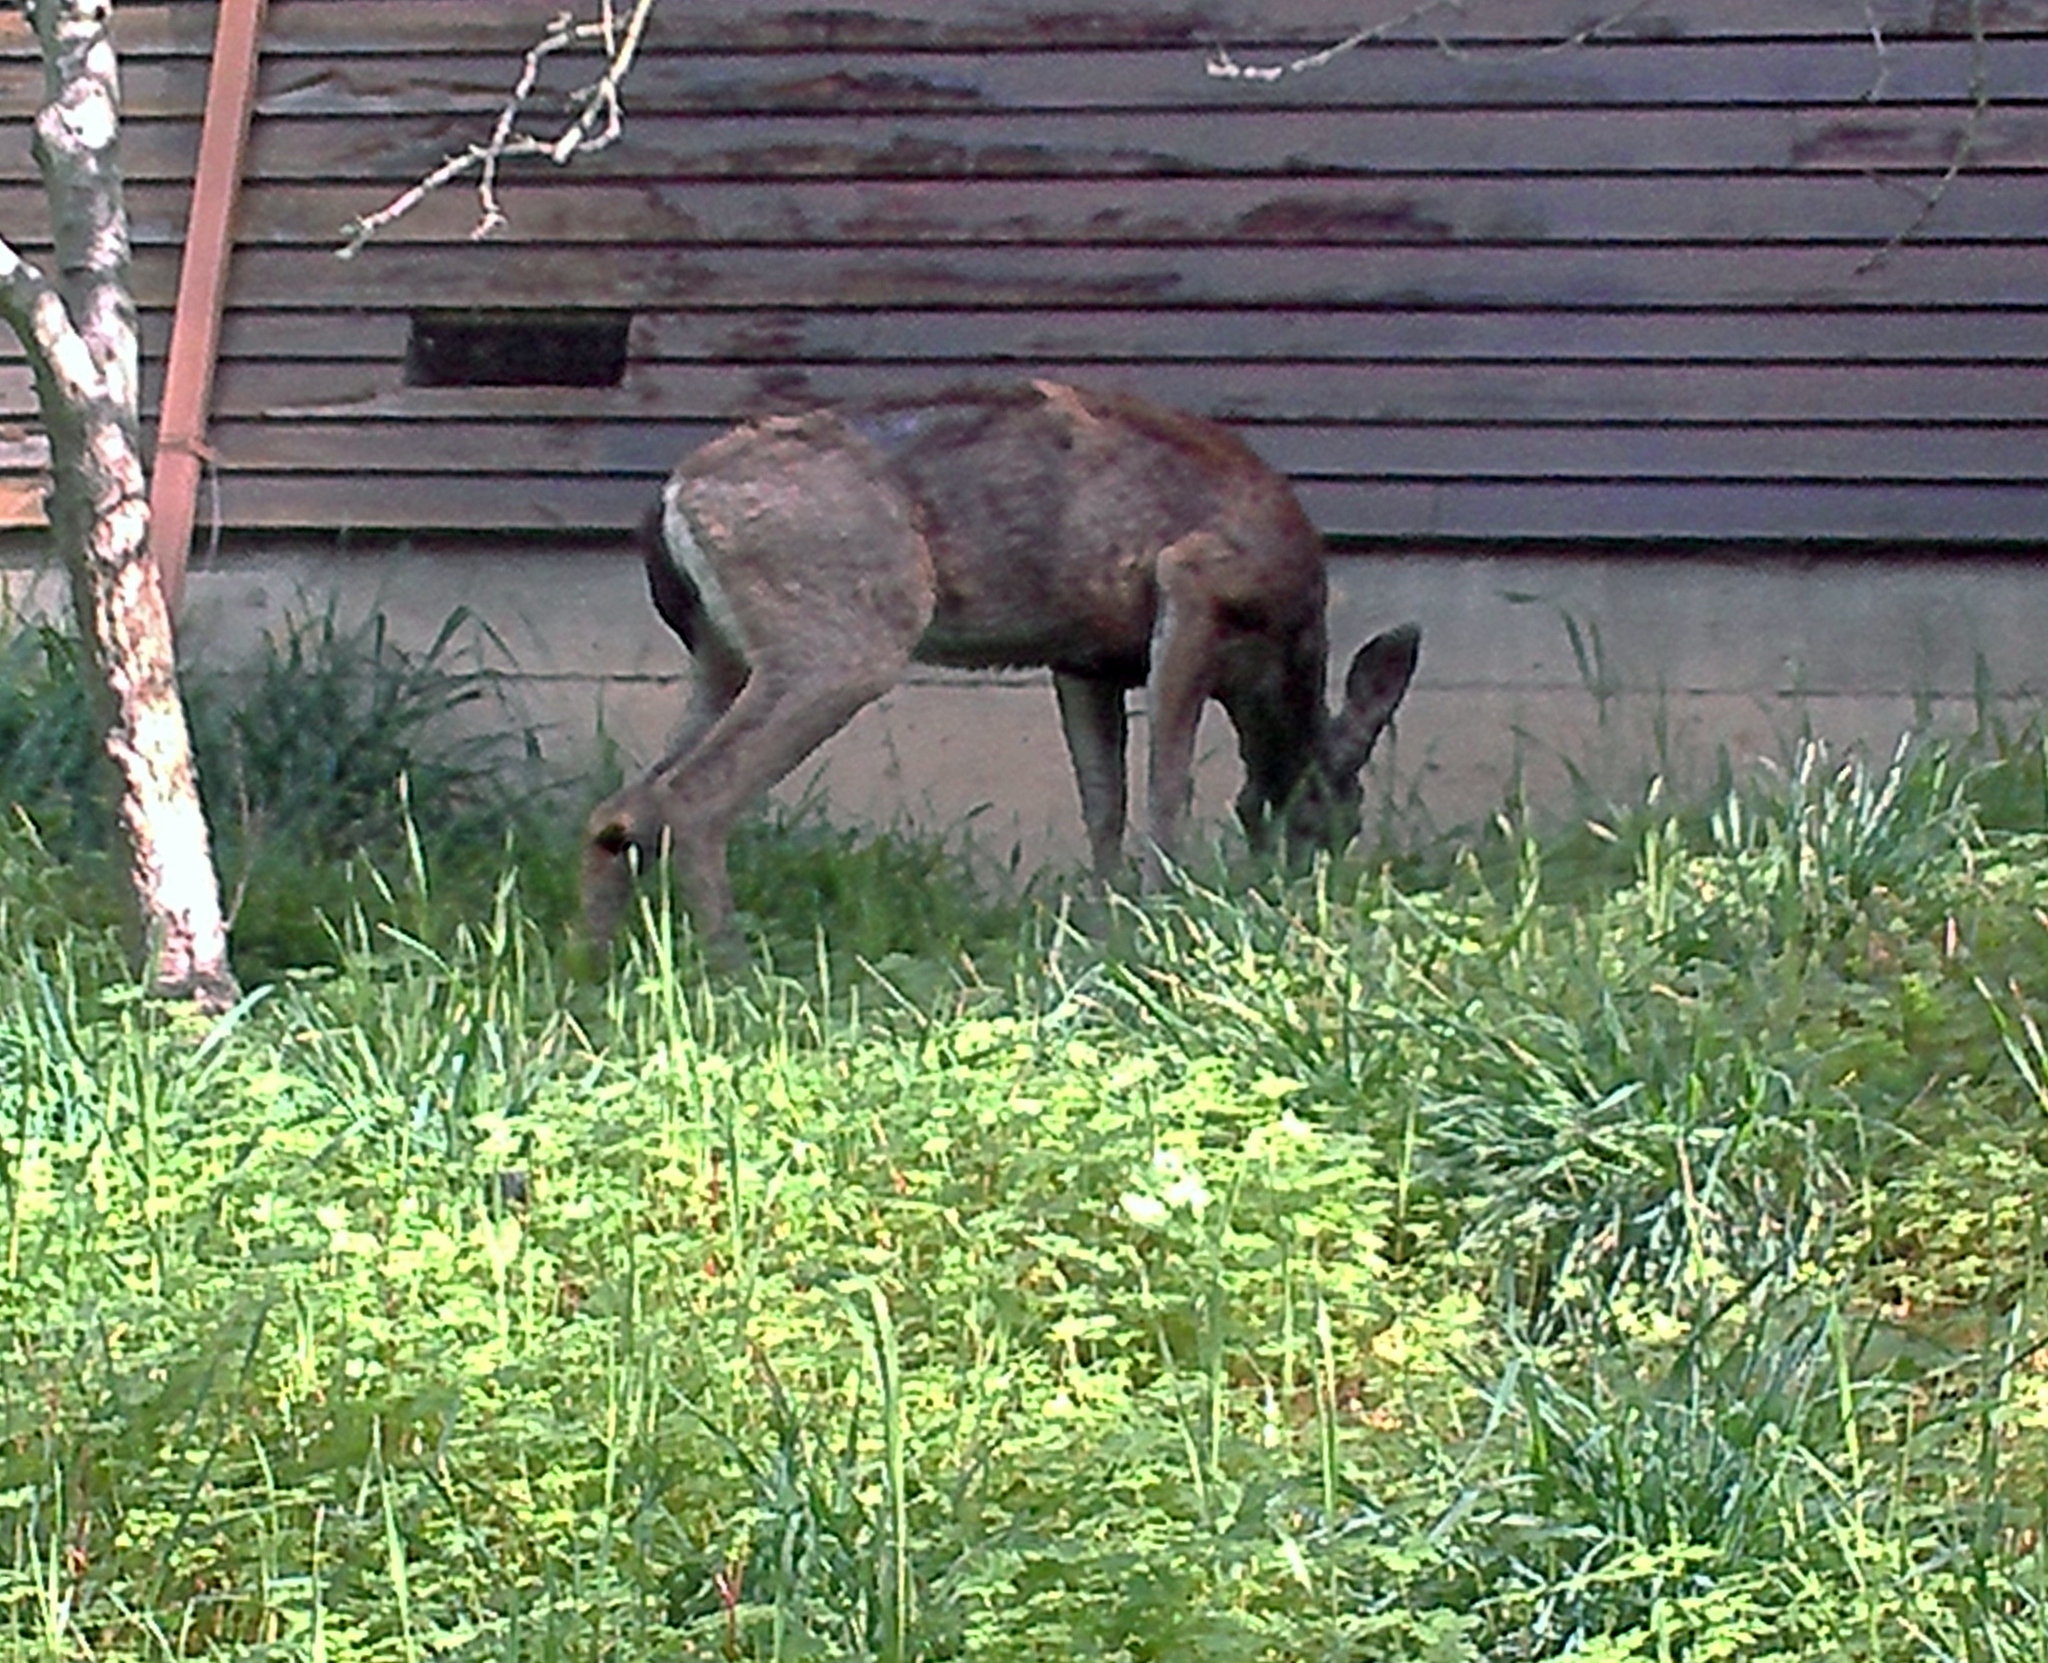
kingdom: Animalia
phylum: Chordata
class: Mammalia
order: Artiodactyla
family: Cervidae
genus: Odocoileus
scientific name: Odocoileus hemionus
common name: Mule deer
